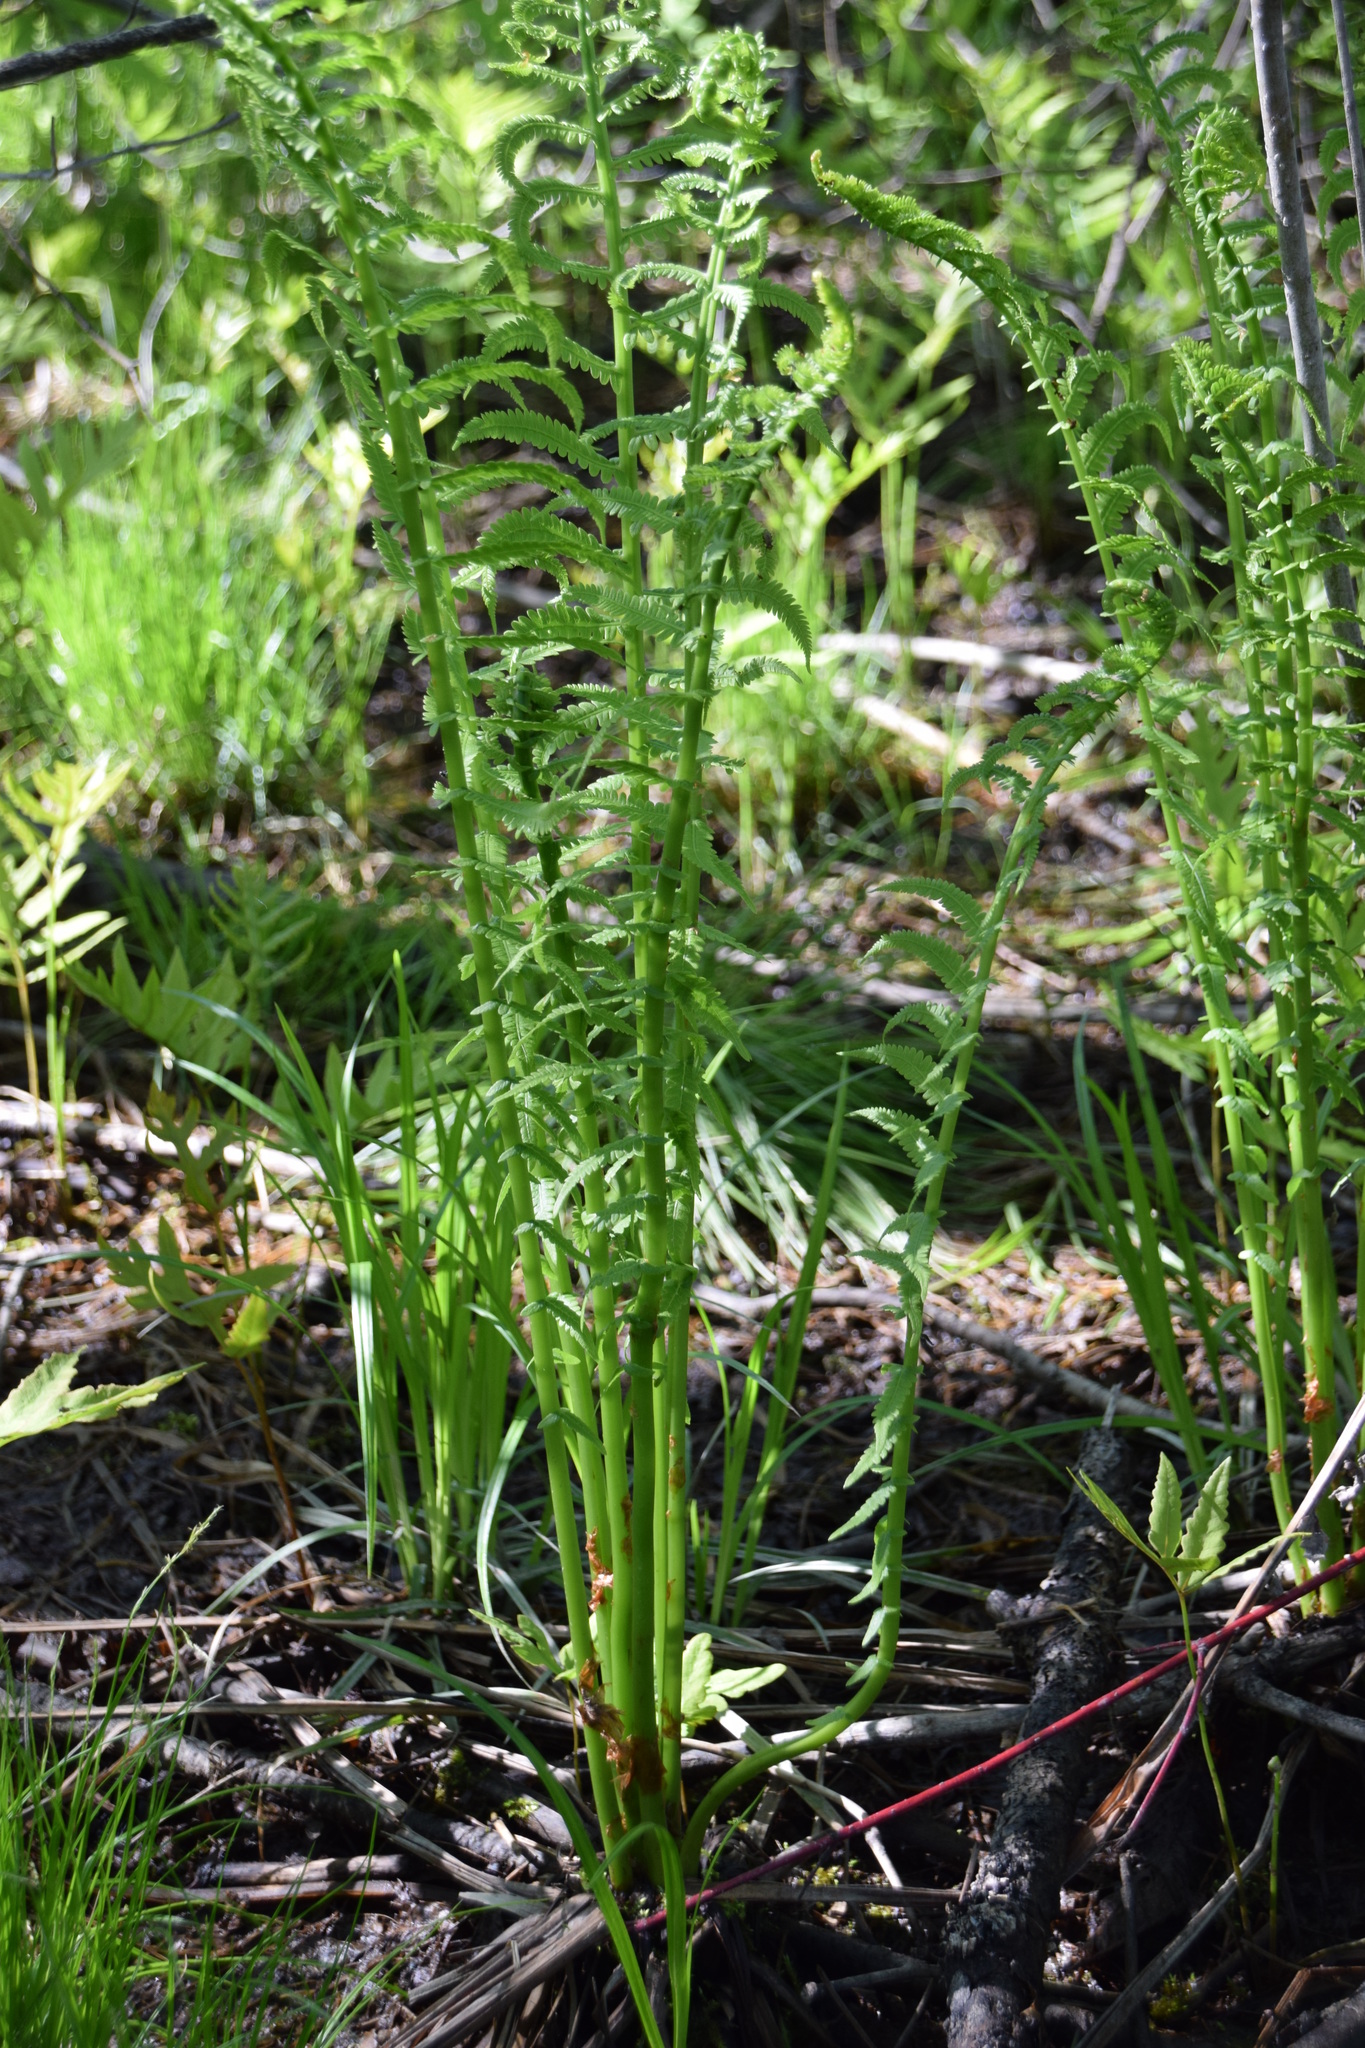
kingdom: Plantae
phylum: Tracheophyta
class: Polypodiopsida
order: Polypodiales
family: Onocleaceae
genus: Matteuccia
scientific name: Matteuccia struthiopteris
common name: Ostrich fern
